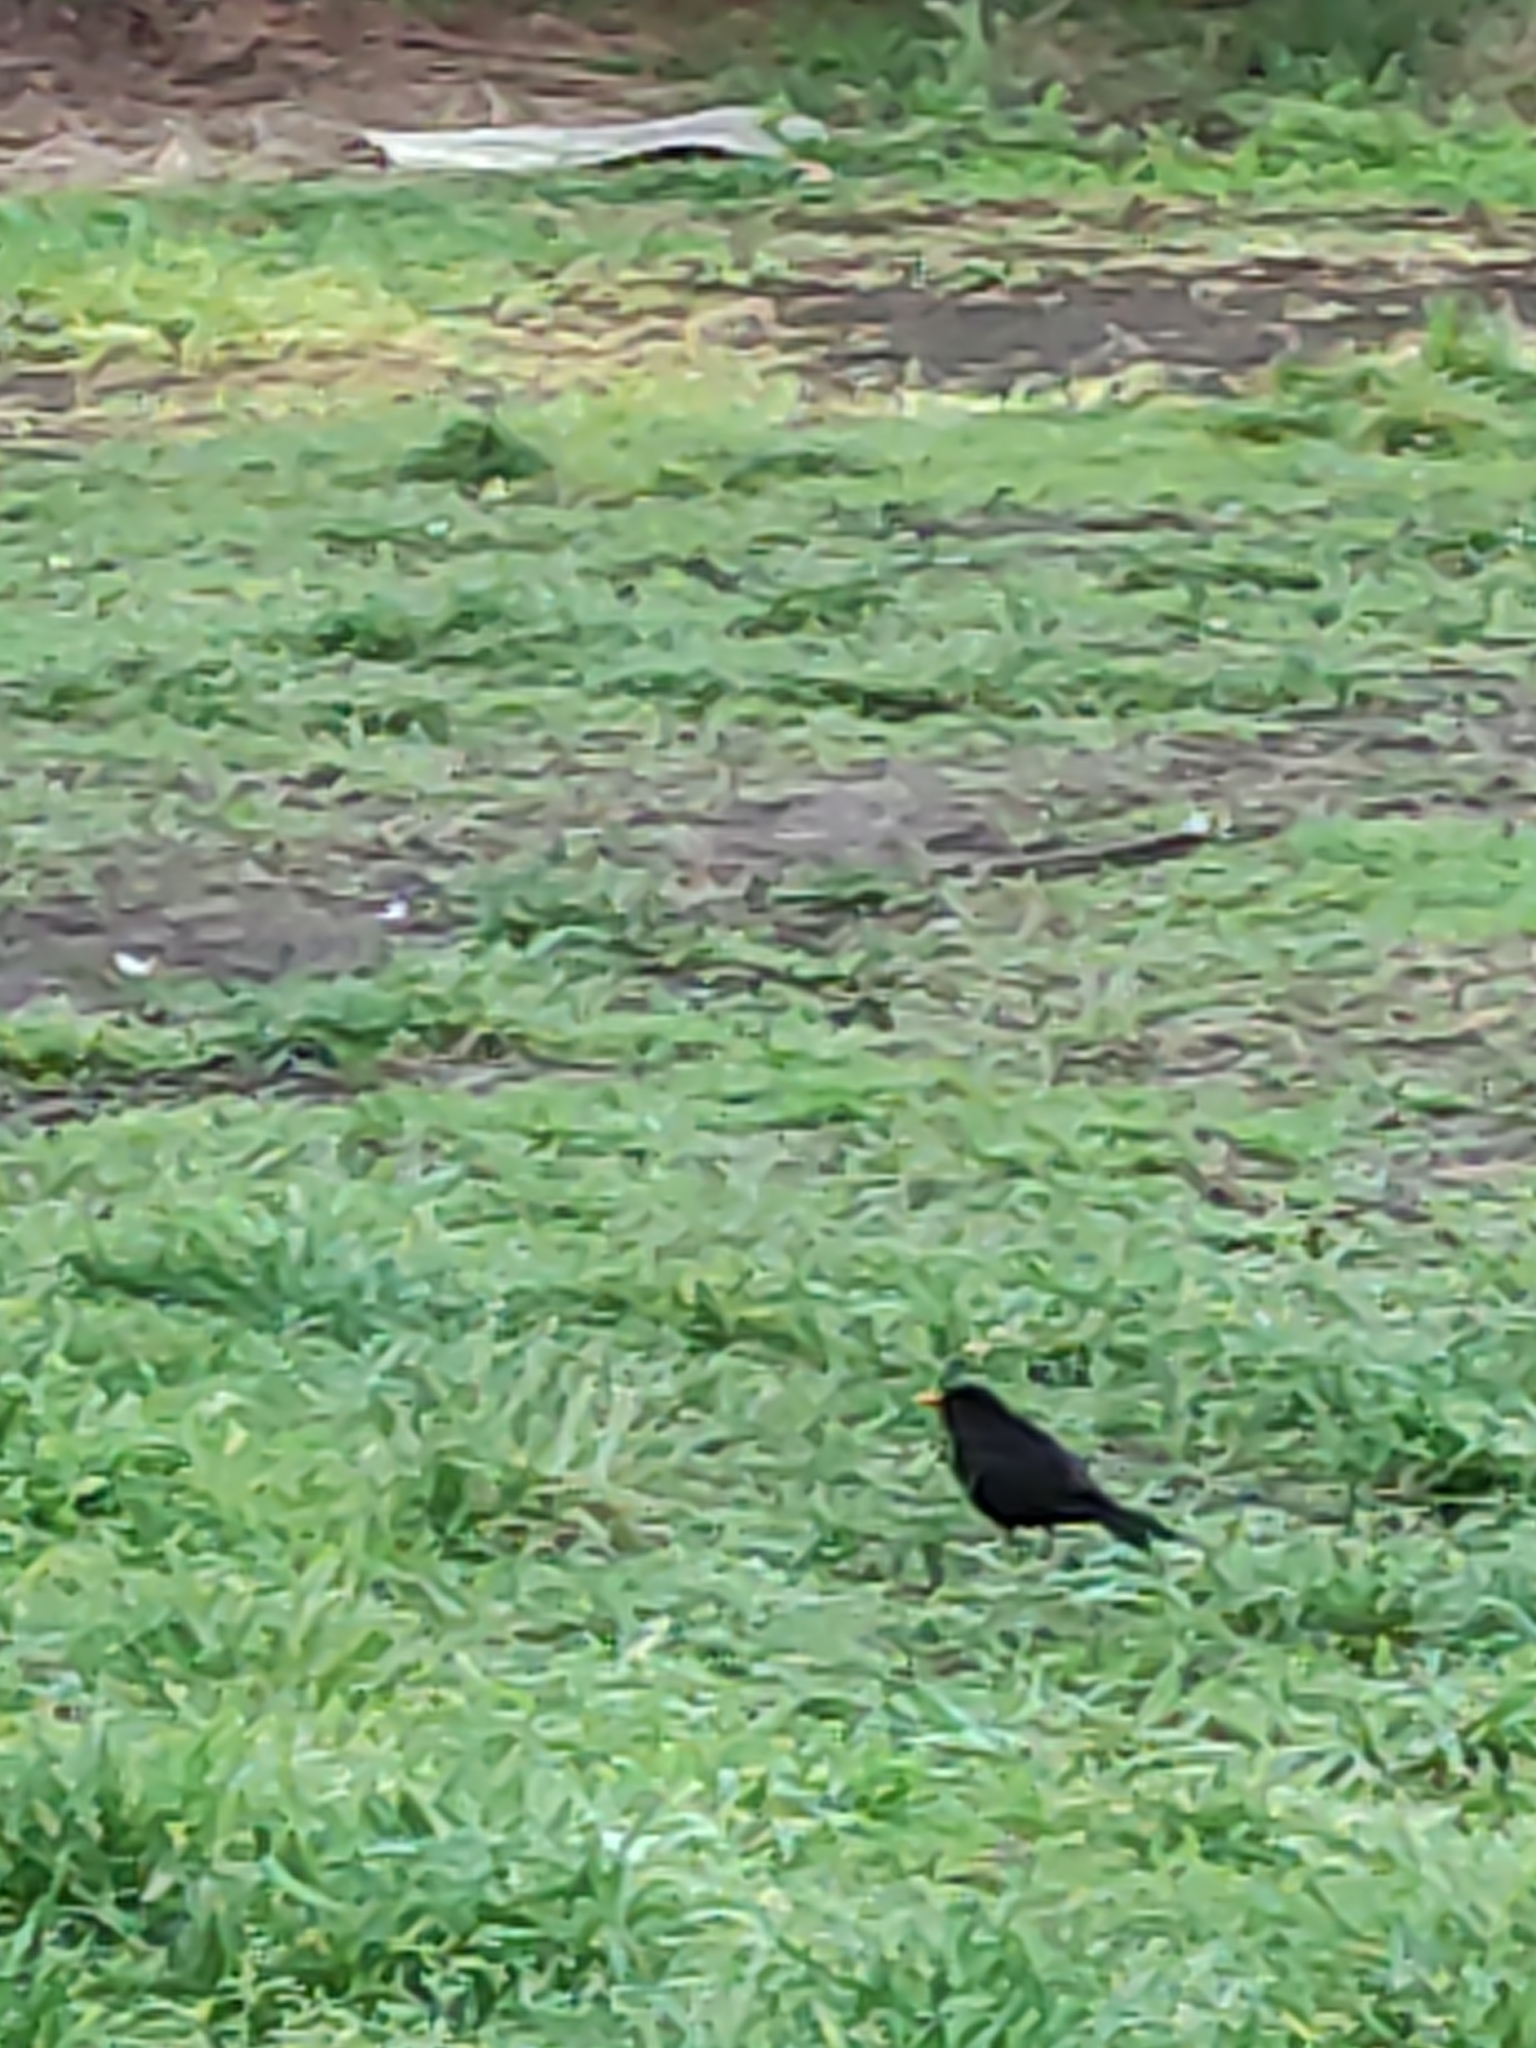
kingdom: Animalia
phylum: Chordata
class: Aves
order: Passeriformes
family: Turdidae
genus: Turdus
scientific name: Turdus merula
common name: Common blackbird
